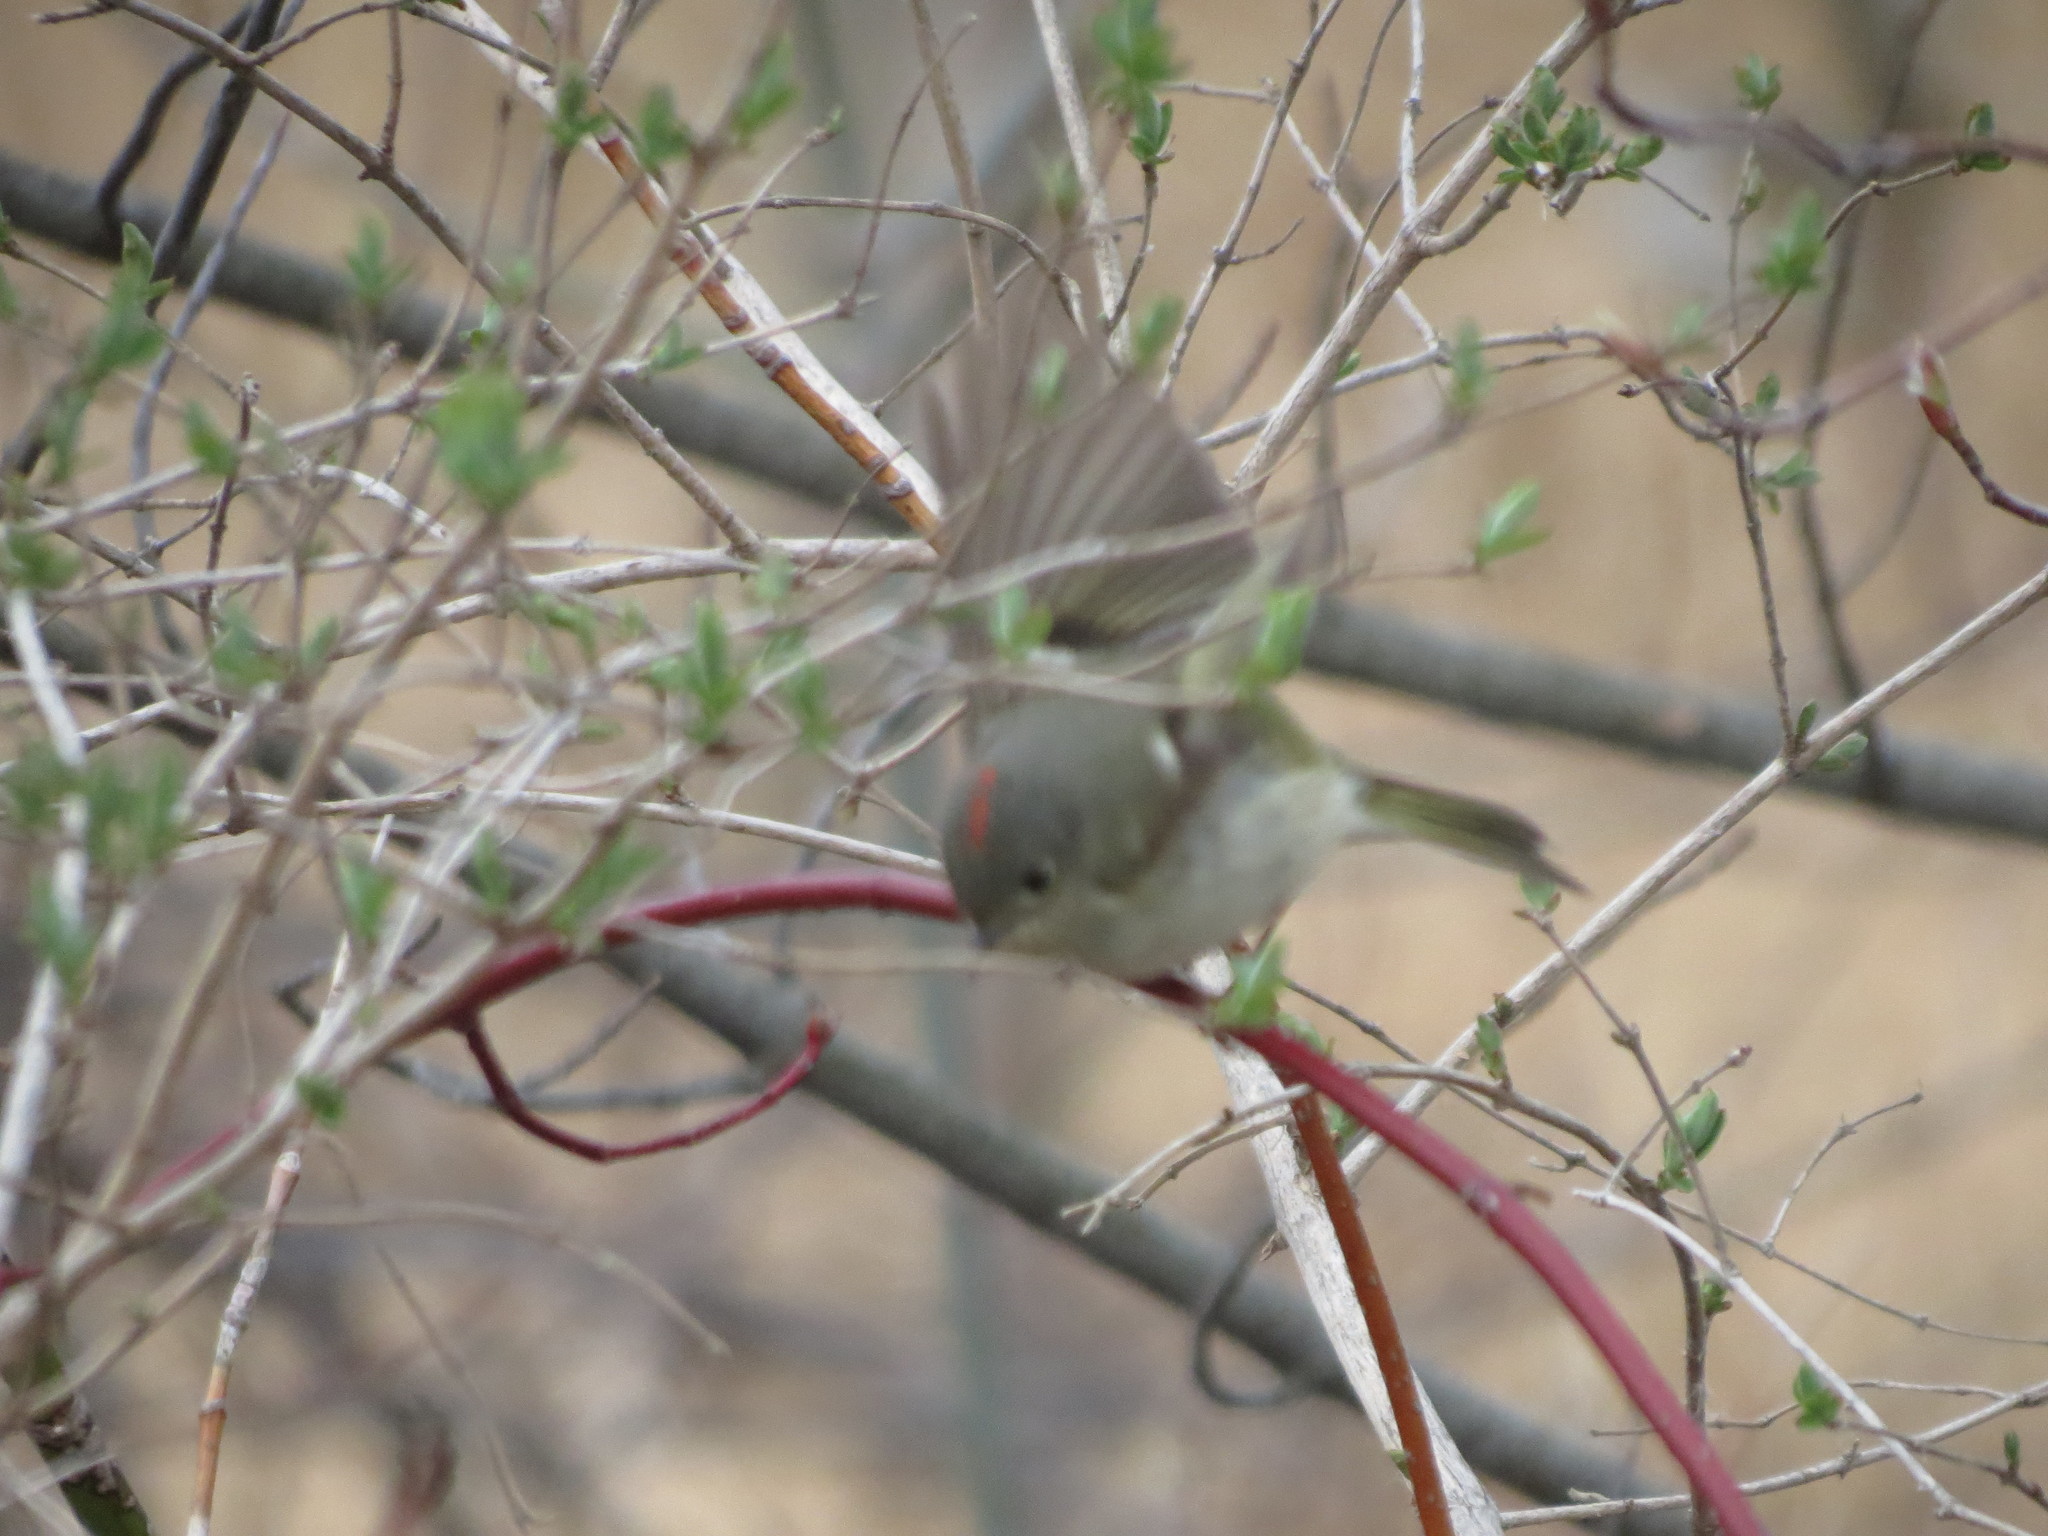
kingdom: Animalia
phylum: Chordata
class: Aves
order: Passeriformes
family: Regulidae
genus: Regulus
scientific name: Regulus calendula
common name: Ruby-crowned kinglet
